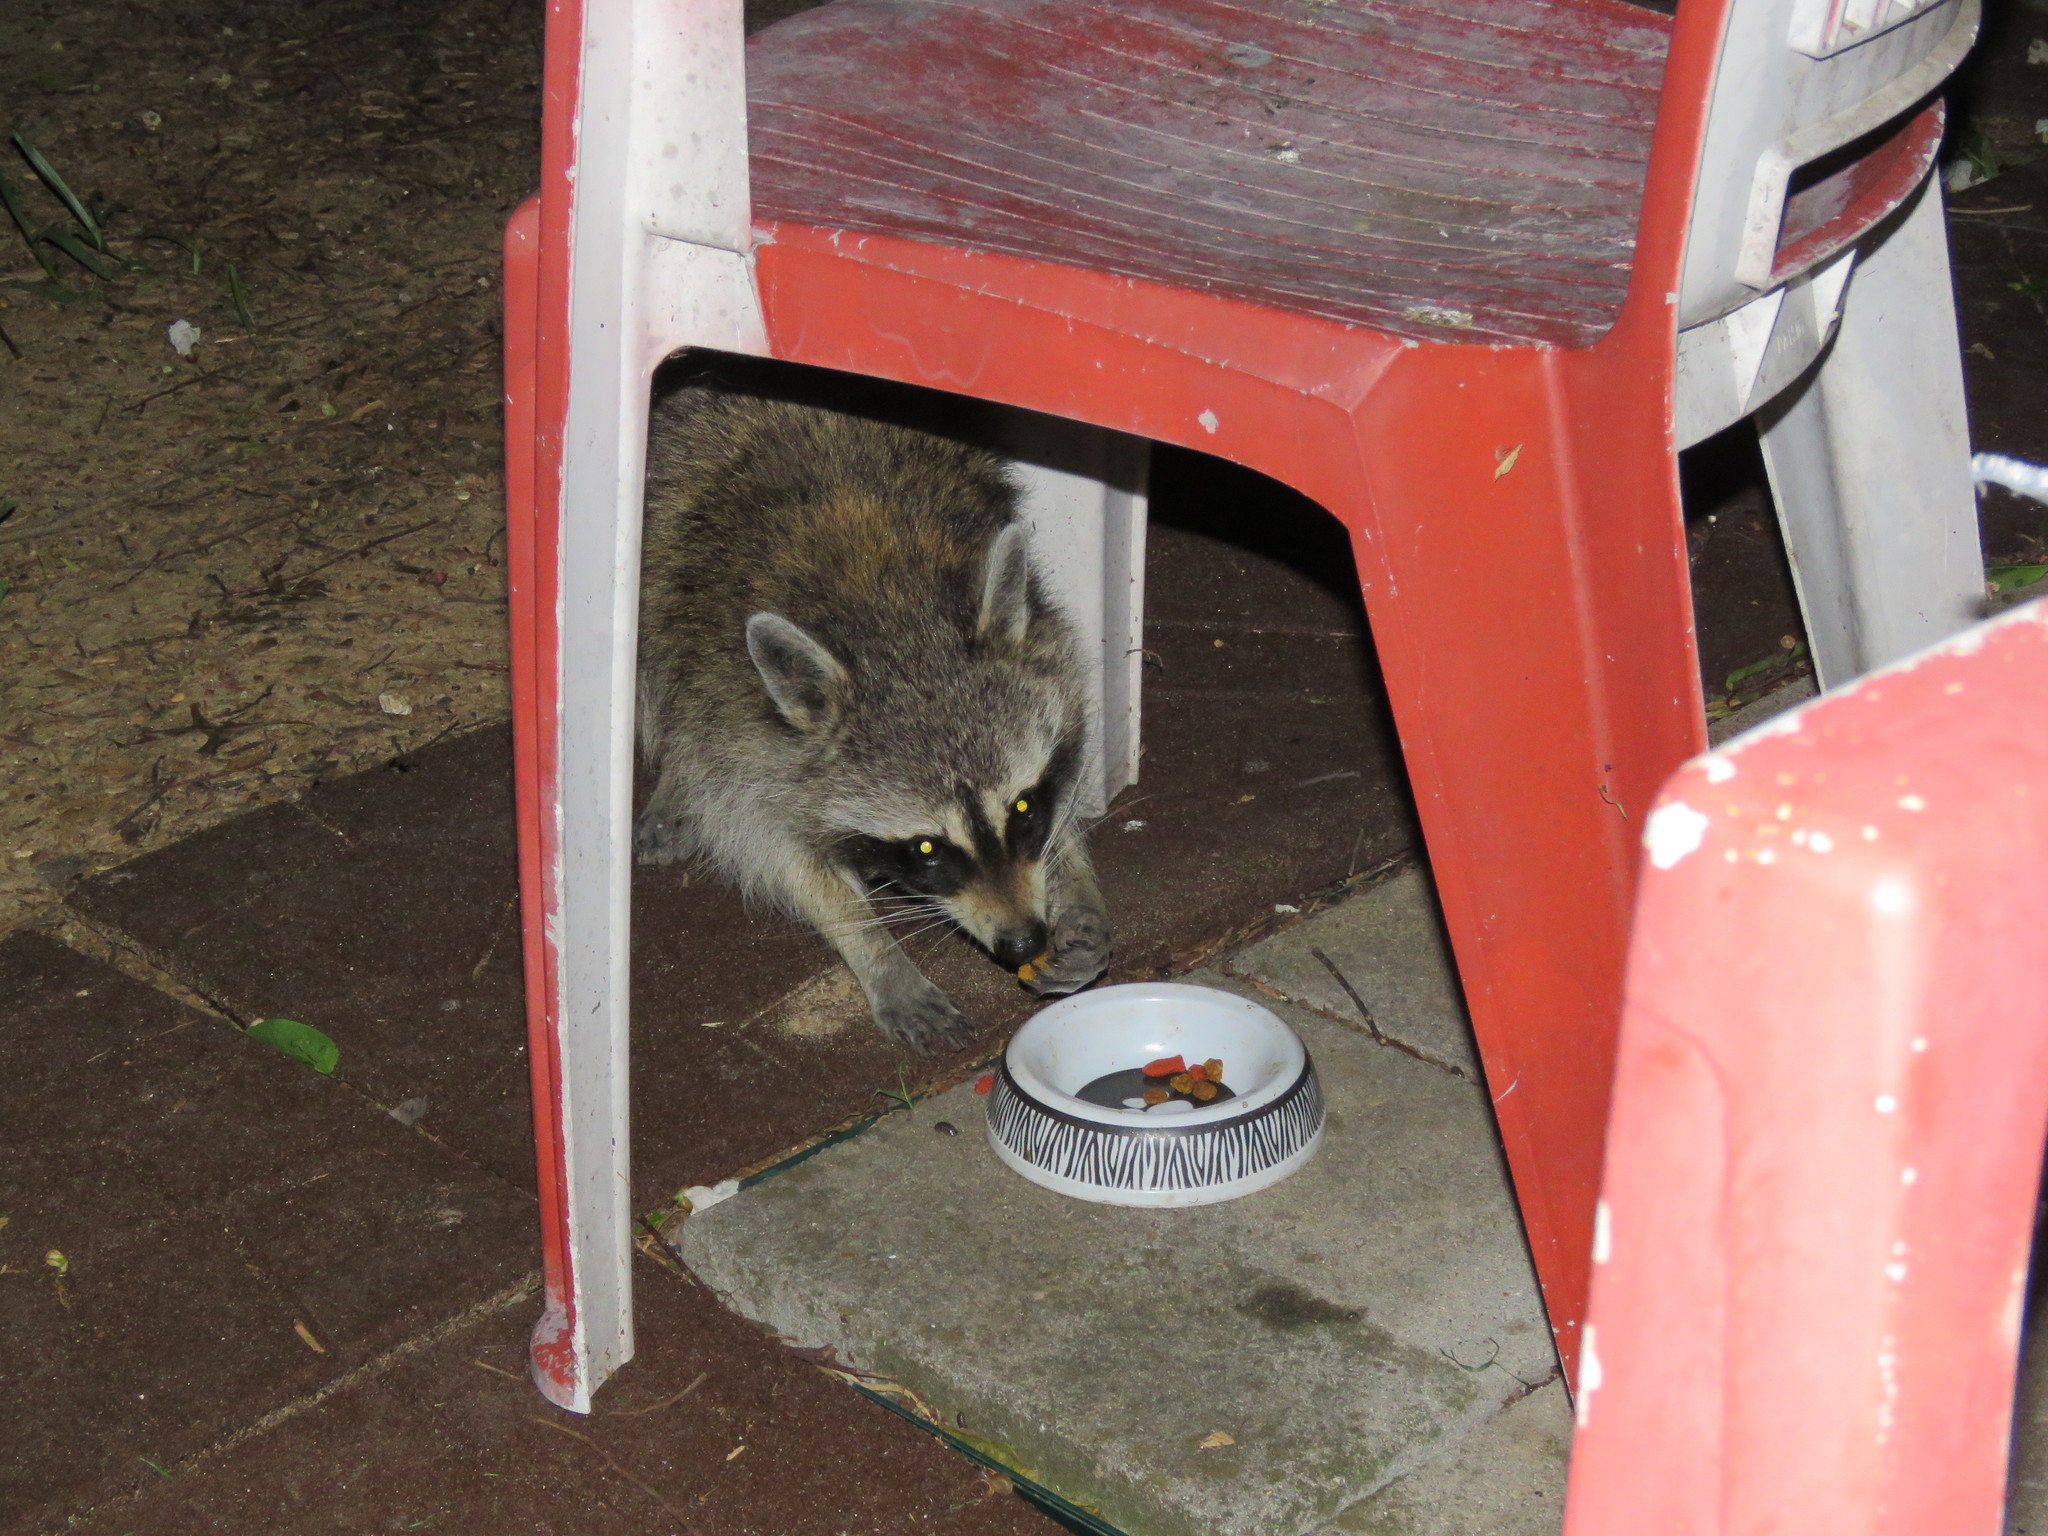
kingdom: Animalia
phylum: Chordata
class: Mammalia
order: Carnivora
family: Procyonidae
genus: Procyon
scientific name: Procyon lotor
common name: Raccoon
